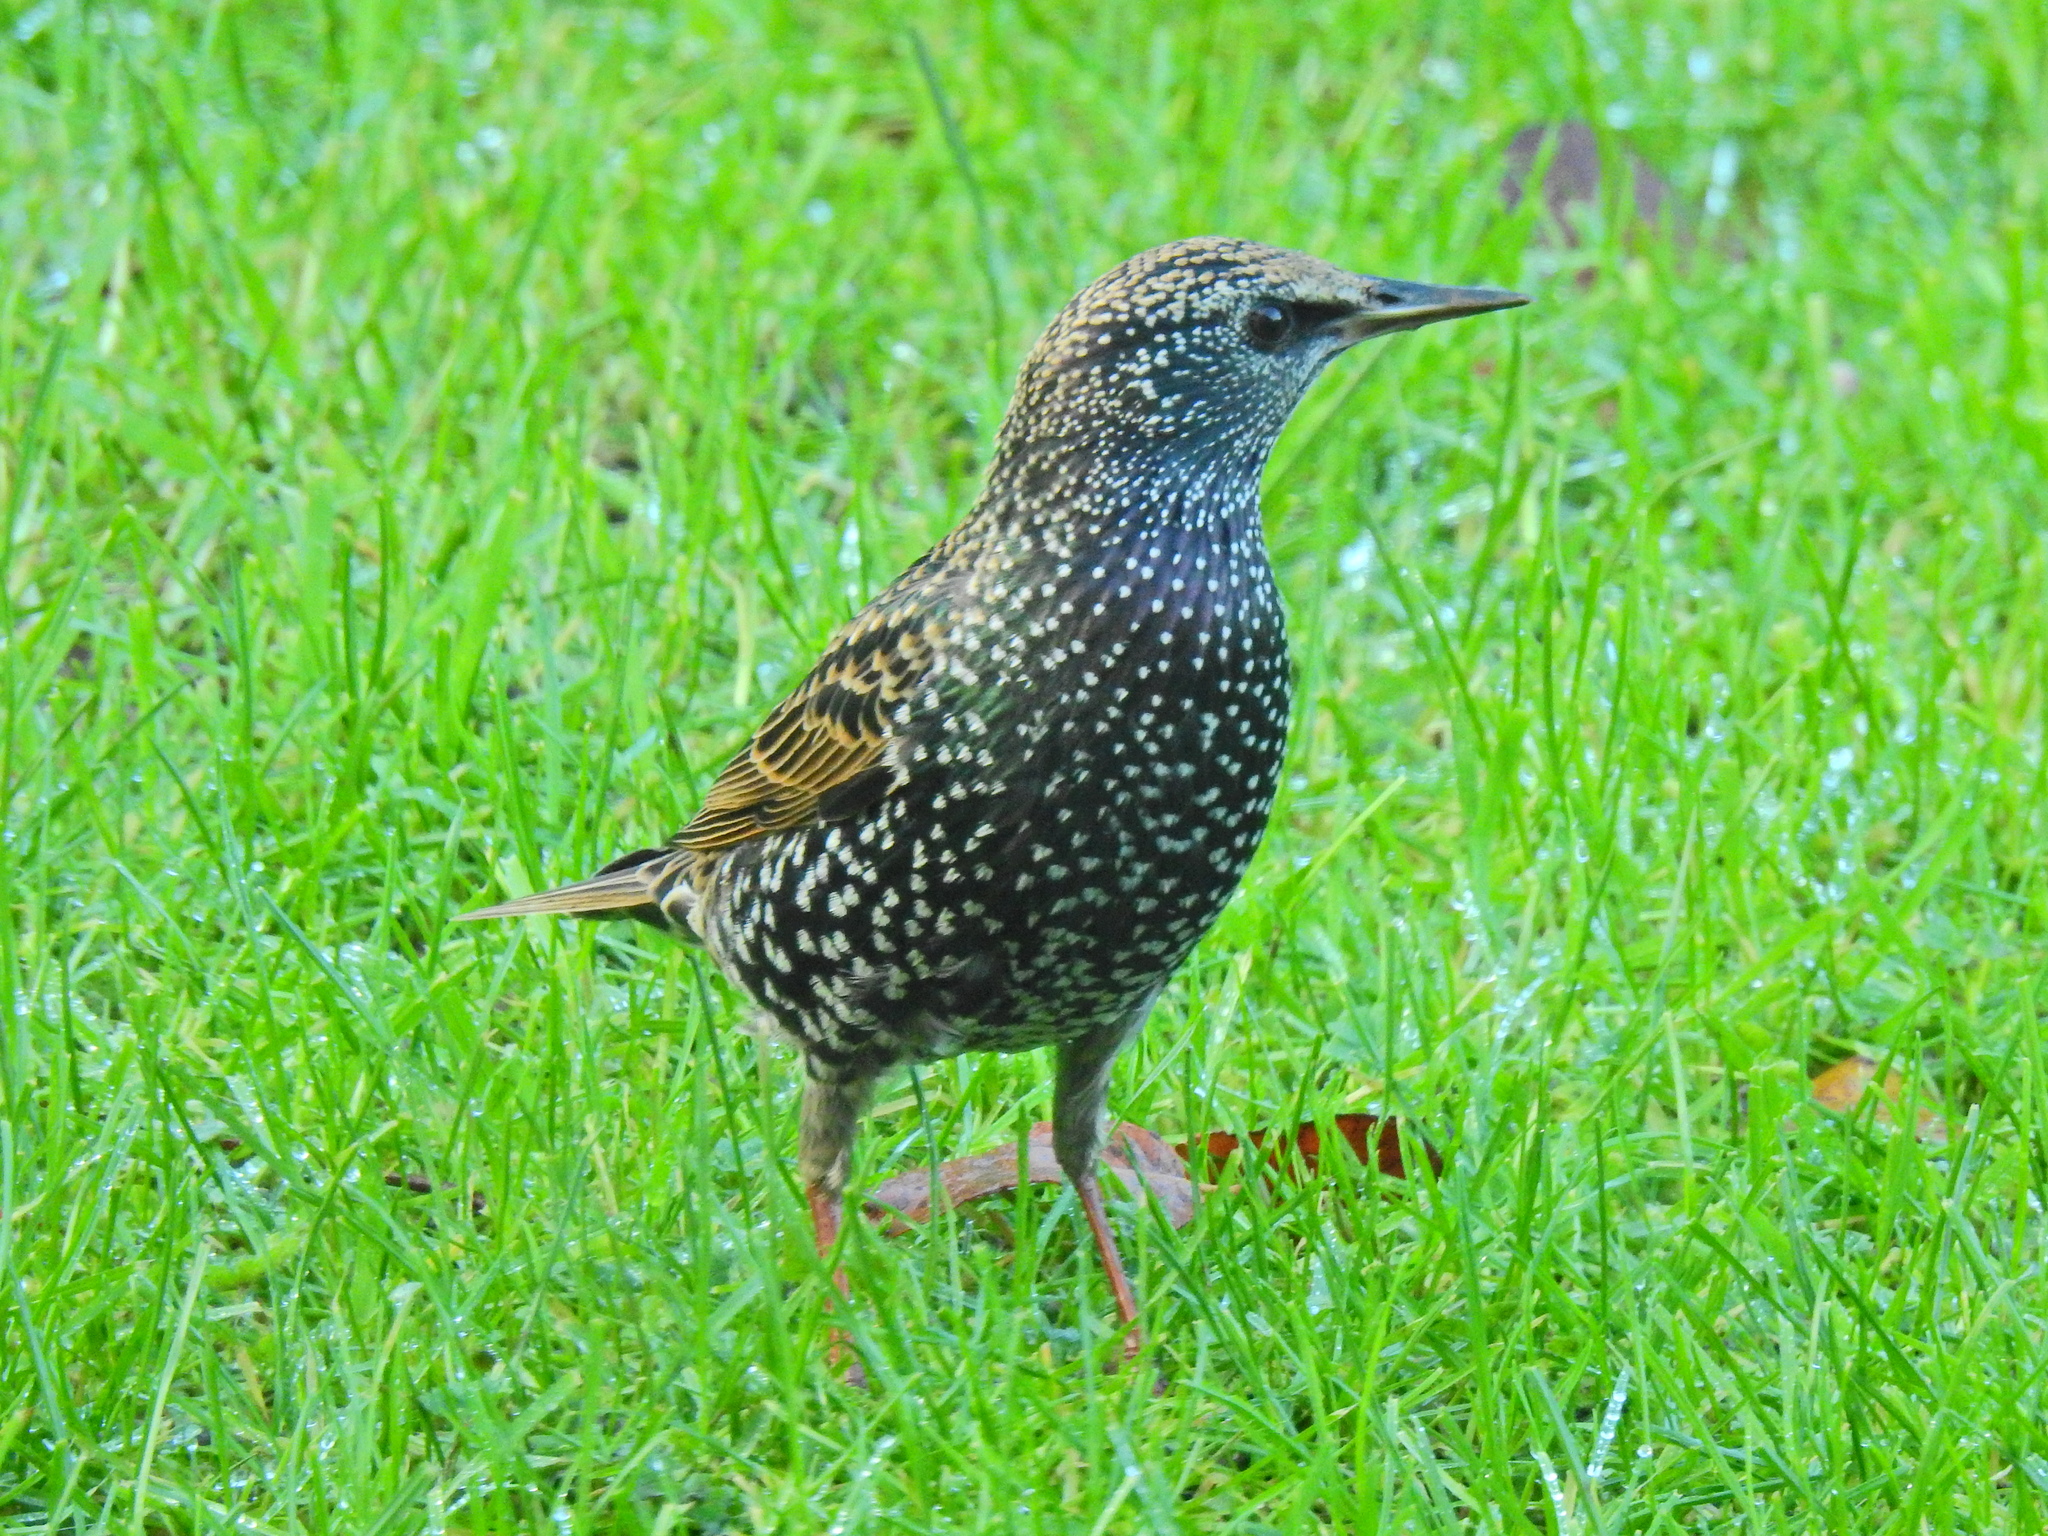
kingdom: Animalia
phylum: Chordata
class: Aves
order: Passeriformes
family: Sturnidae
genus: Sturnus
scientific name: Sturnus vulgaris
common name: Common starling
